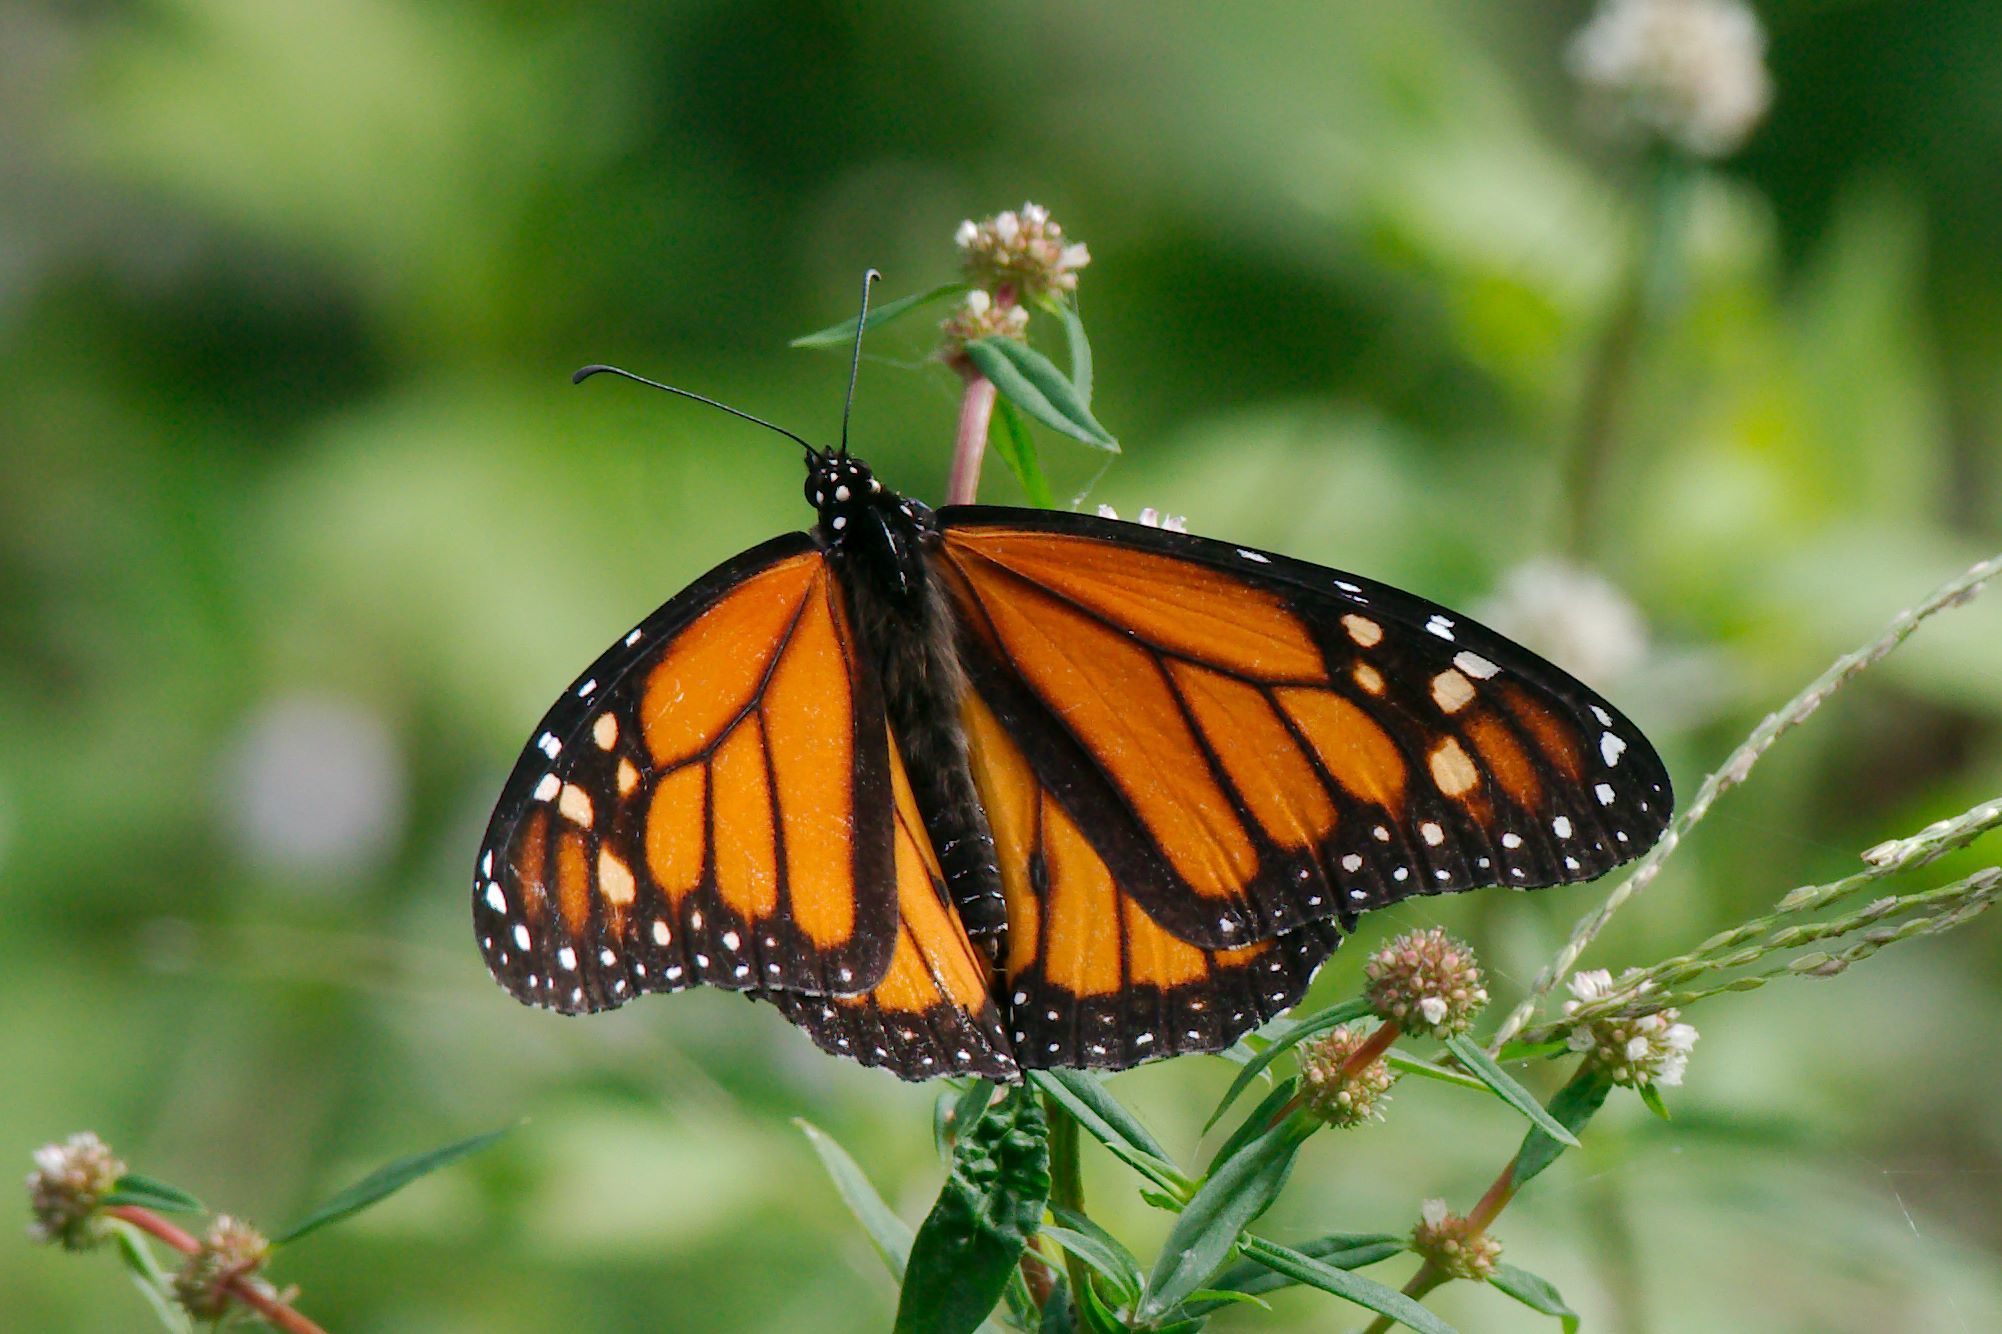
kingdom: Animalia
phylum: Arthropoda
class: Insecta
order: Lepidoptera
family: Nymphalidae
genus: Danaus
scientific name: Danaus plexippus
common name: Monarch
